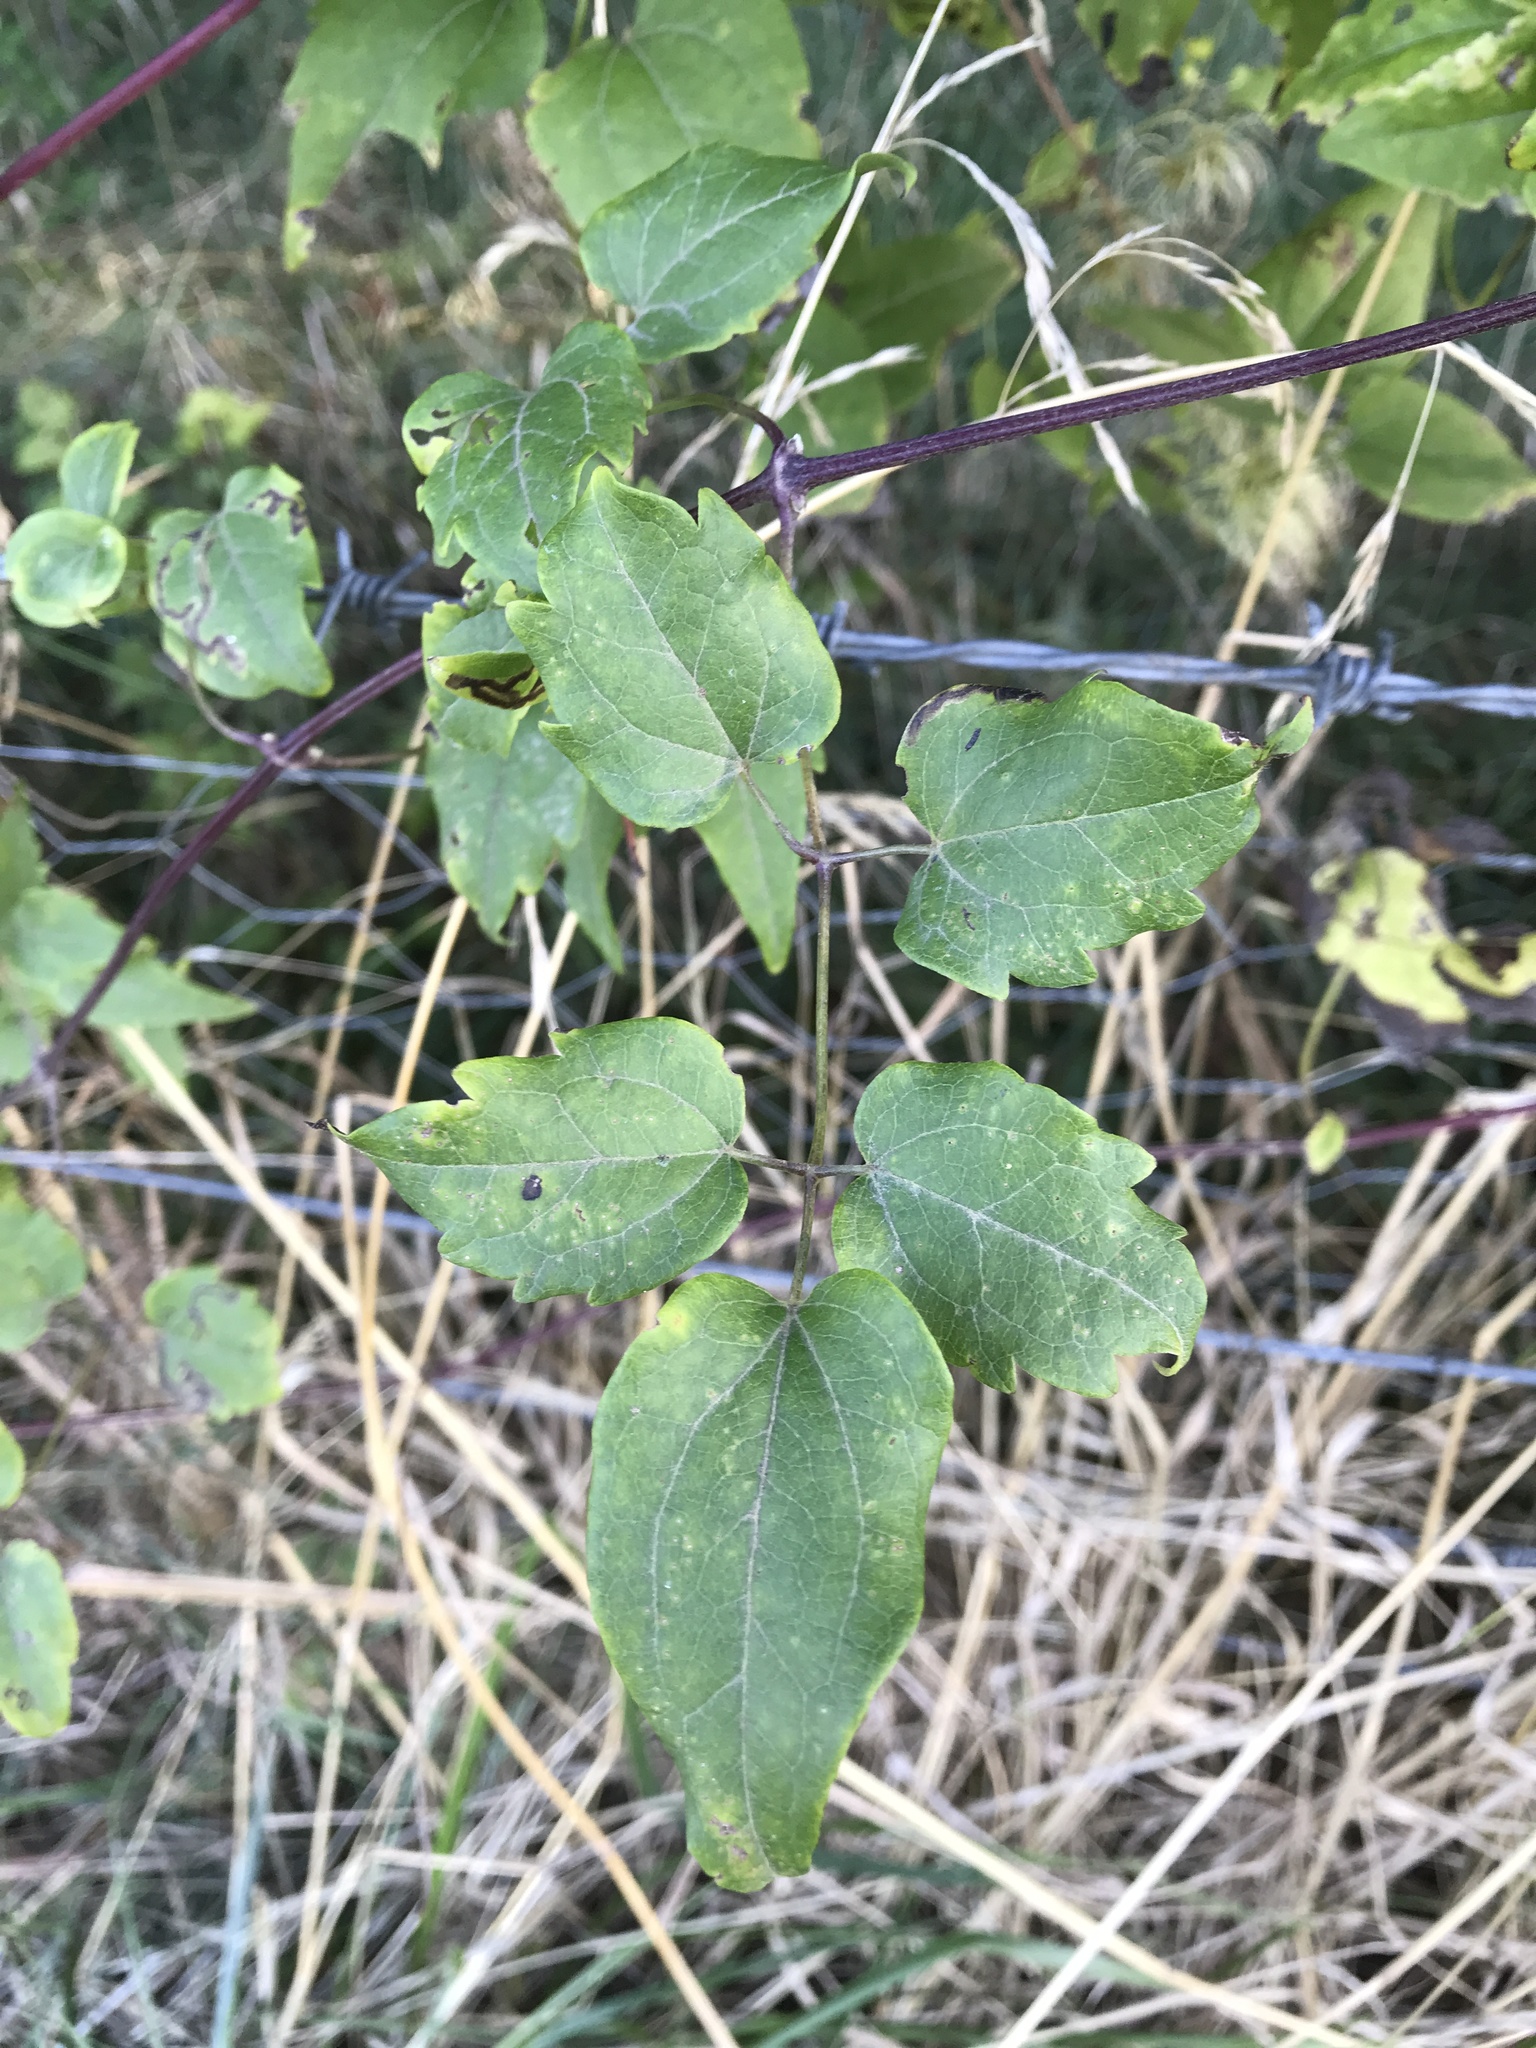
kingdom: Plantae
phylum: Tracheophyta
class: Magnoliopsida
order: Ranunculales
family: Ranunculaceae
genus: Clematis
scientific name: Clematis vitalba
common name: Evergreen clematis
